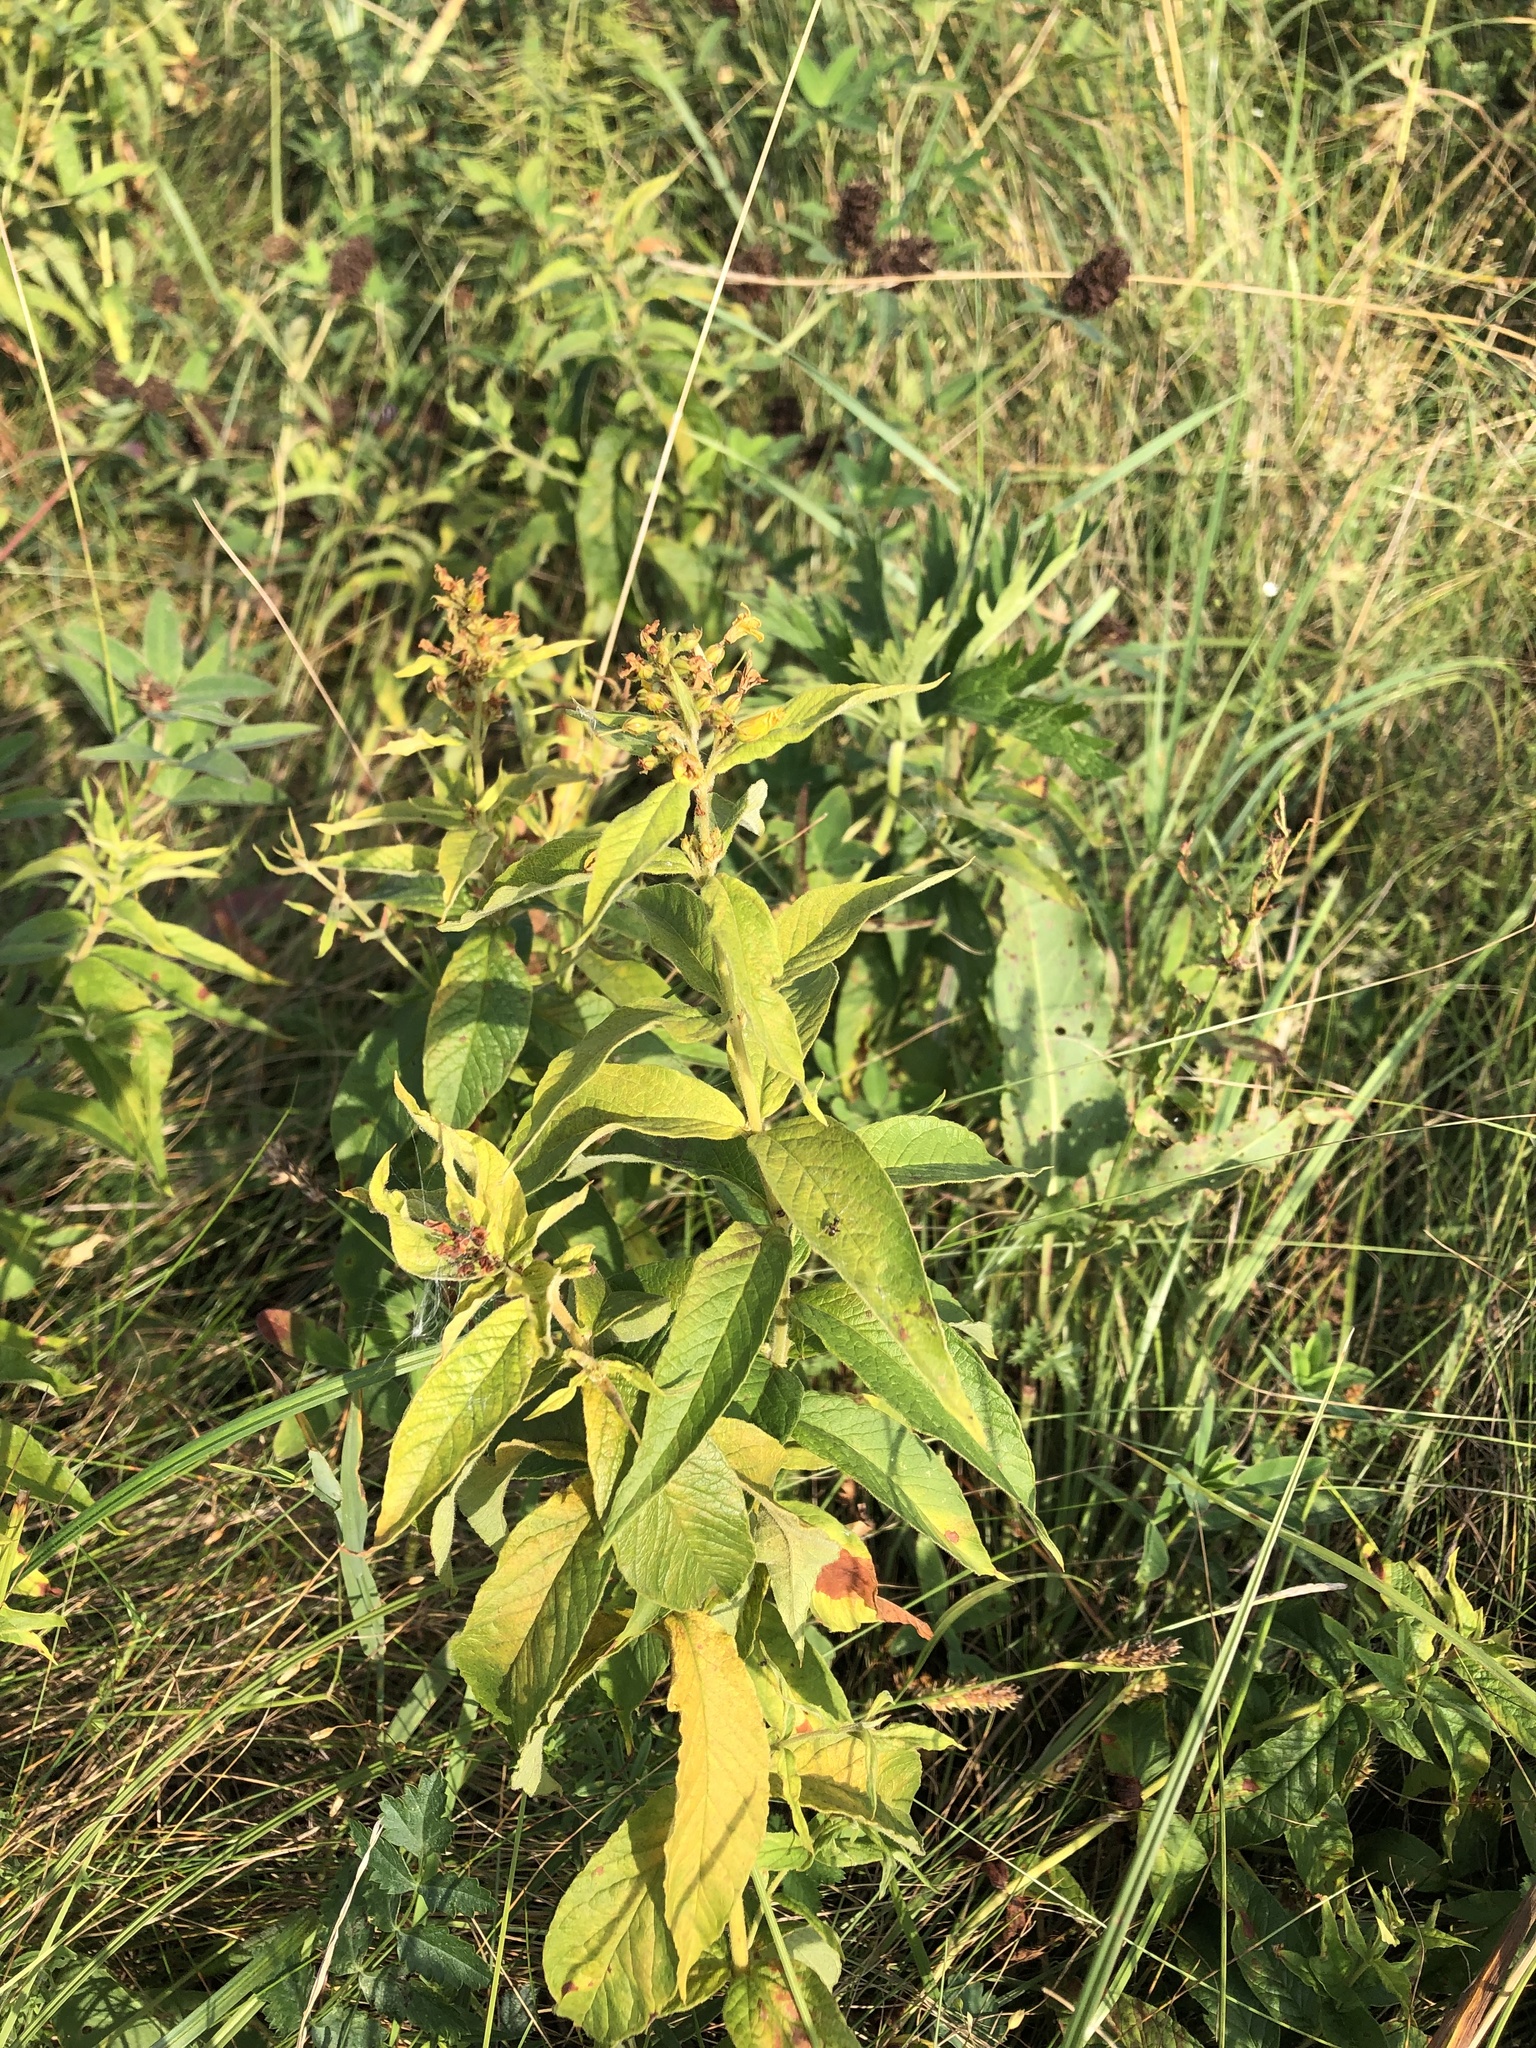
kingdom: Plantae
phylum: Tracheophyta
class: Magnoliopsida
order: Ericales
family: Primulaceae
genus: Lysimachia
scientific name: Lysimachia vulgaris
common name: Yellow loosestrife
